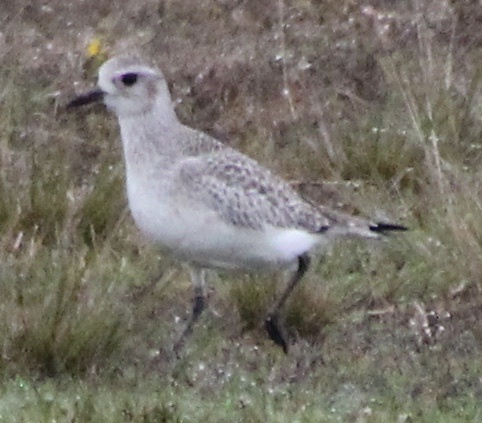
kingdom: Animalia
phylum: Chordata
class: Aves
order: Charadriiformes
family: Charadriidae
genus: Pluvialis
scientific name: Pluvialis squatarola
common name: Grey plover
